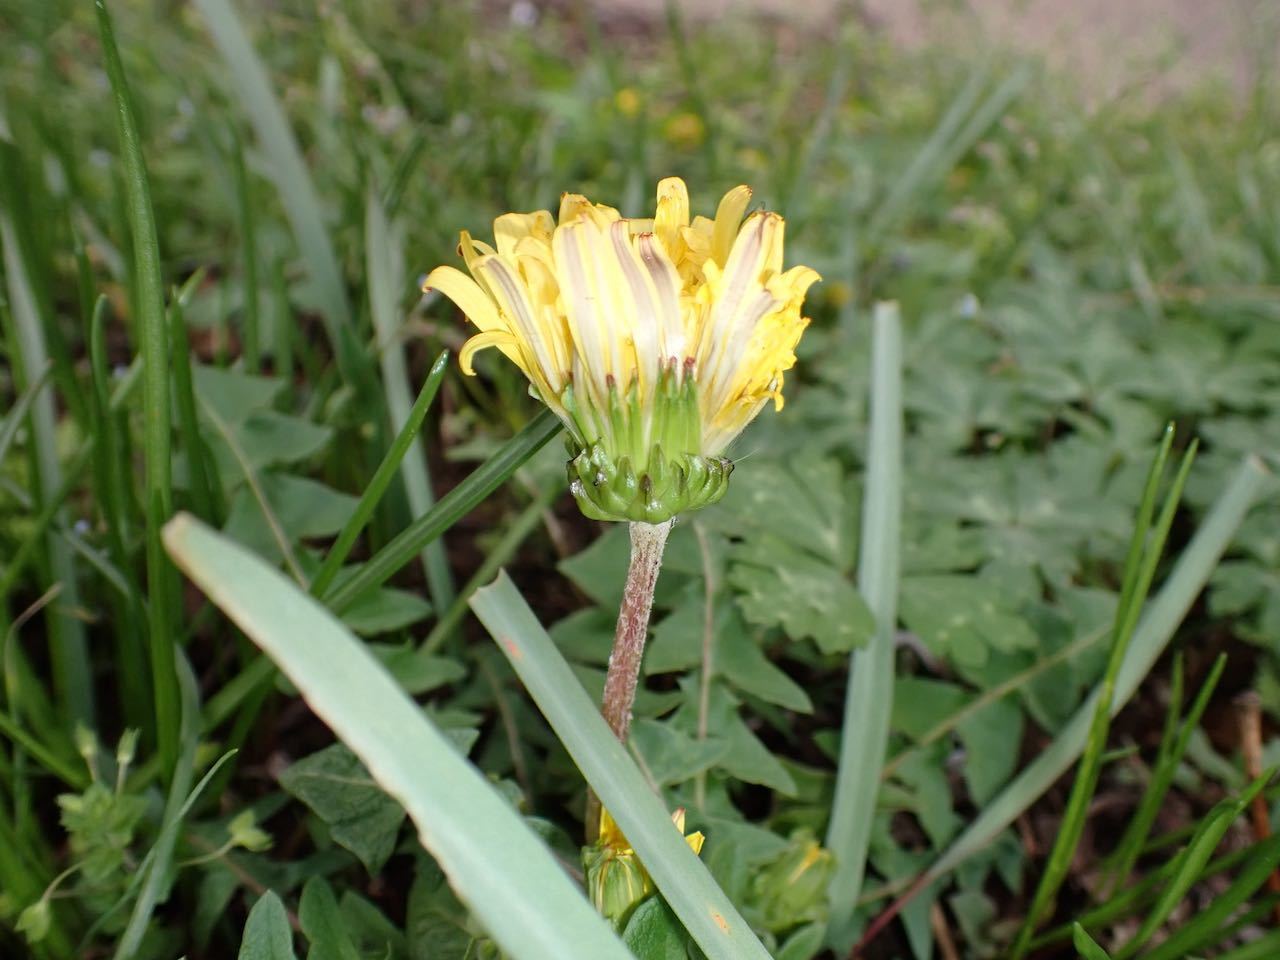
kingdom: Plantae
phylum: Tracheophyta
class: Magnoliopsida
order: Asterales
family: Asteraceae
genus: Taraxacum
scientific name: Taraxacum platycarpum
